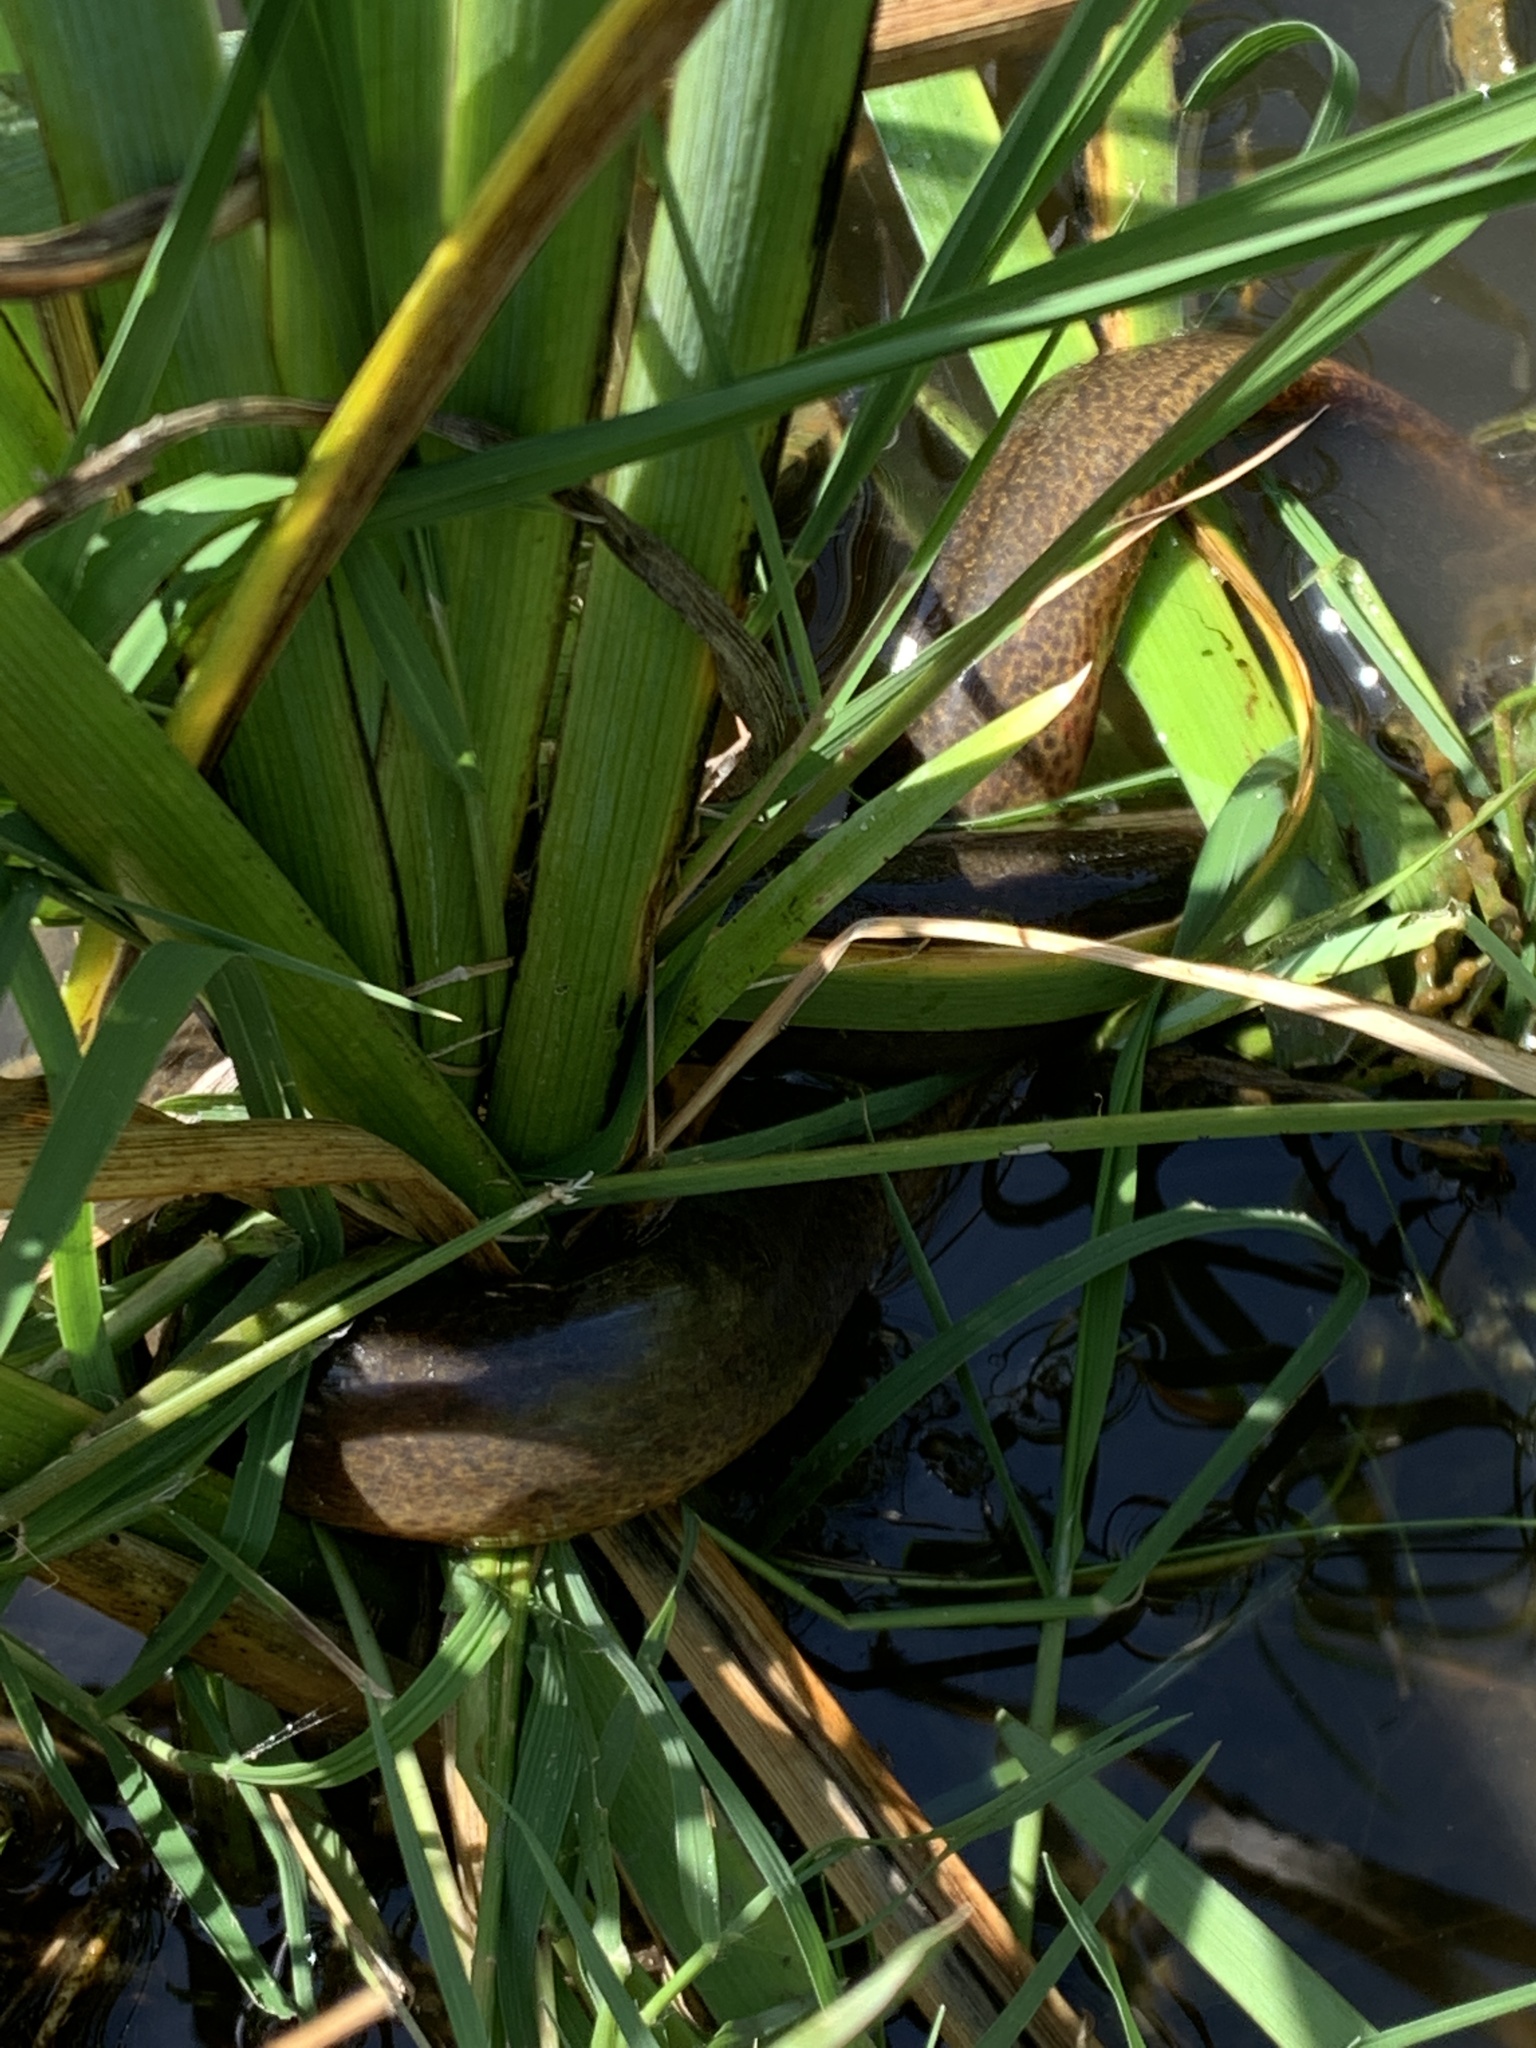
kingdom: Animalia
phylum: Chordata
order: Synbranchiformes
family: Synbranchidae
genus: Synbranchus
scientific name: Synbranchus marmoratus
